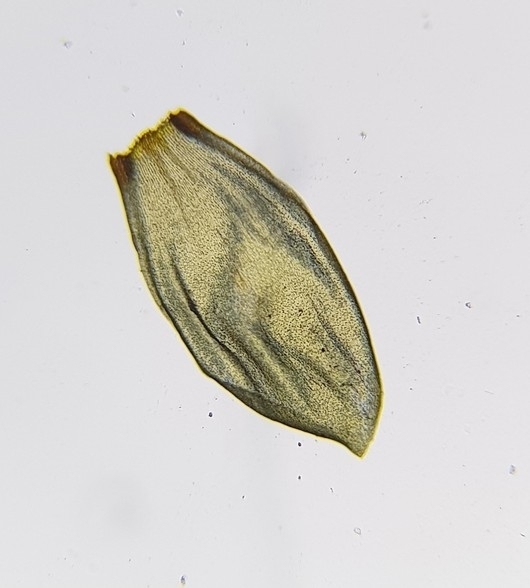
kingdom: Plantae
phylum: Bryophyta
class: Bryopsida
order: Hypnales
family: Hylocomiaceae
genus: Pleurozium
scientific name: Pleurozium schreberi
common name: Red-stemmed feather moss
